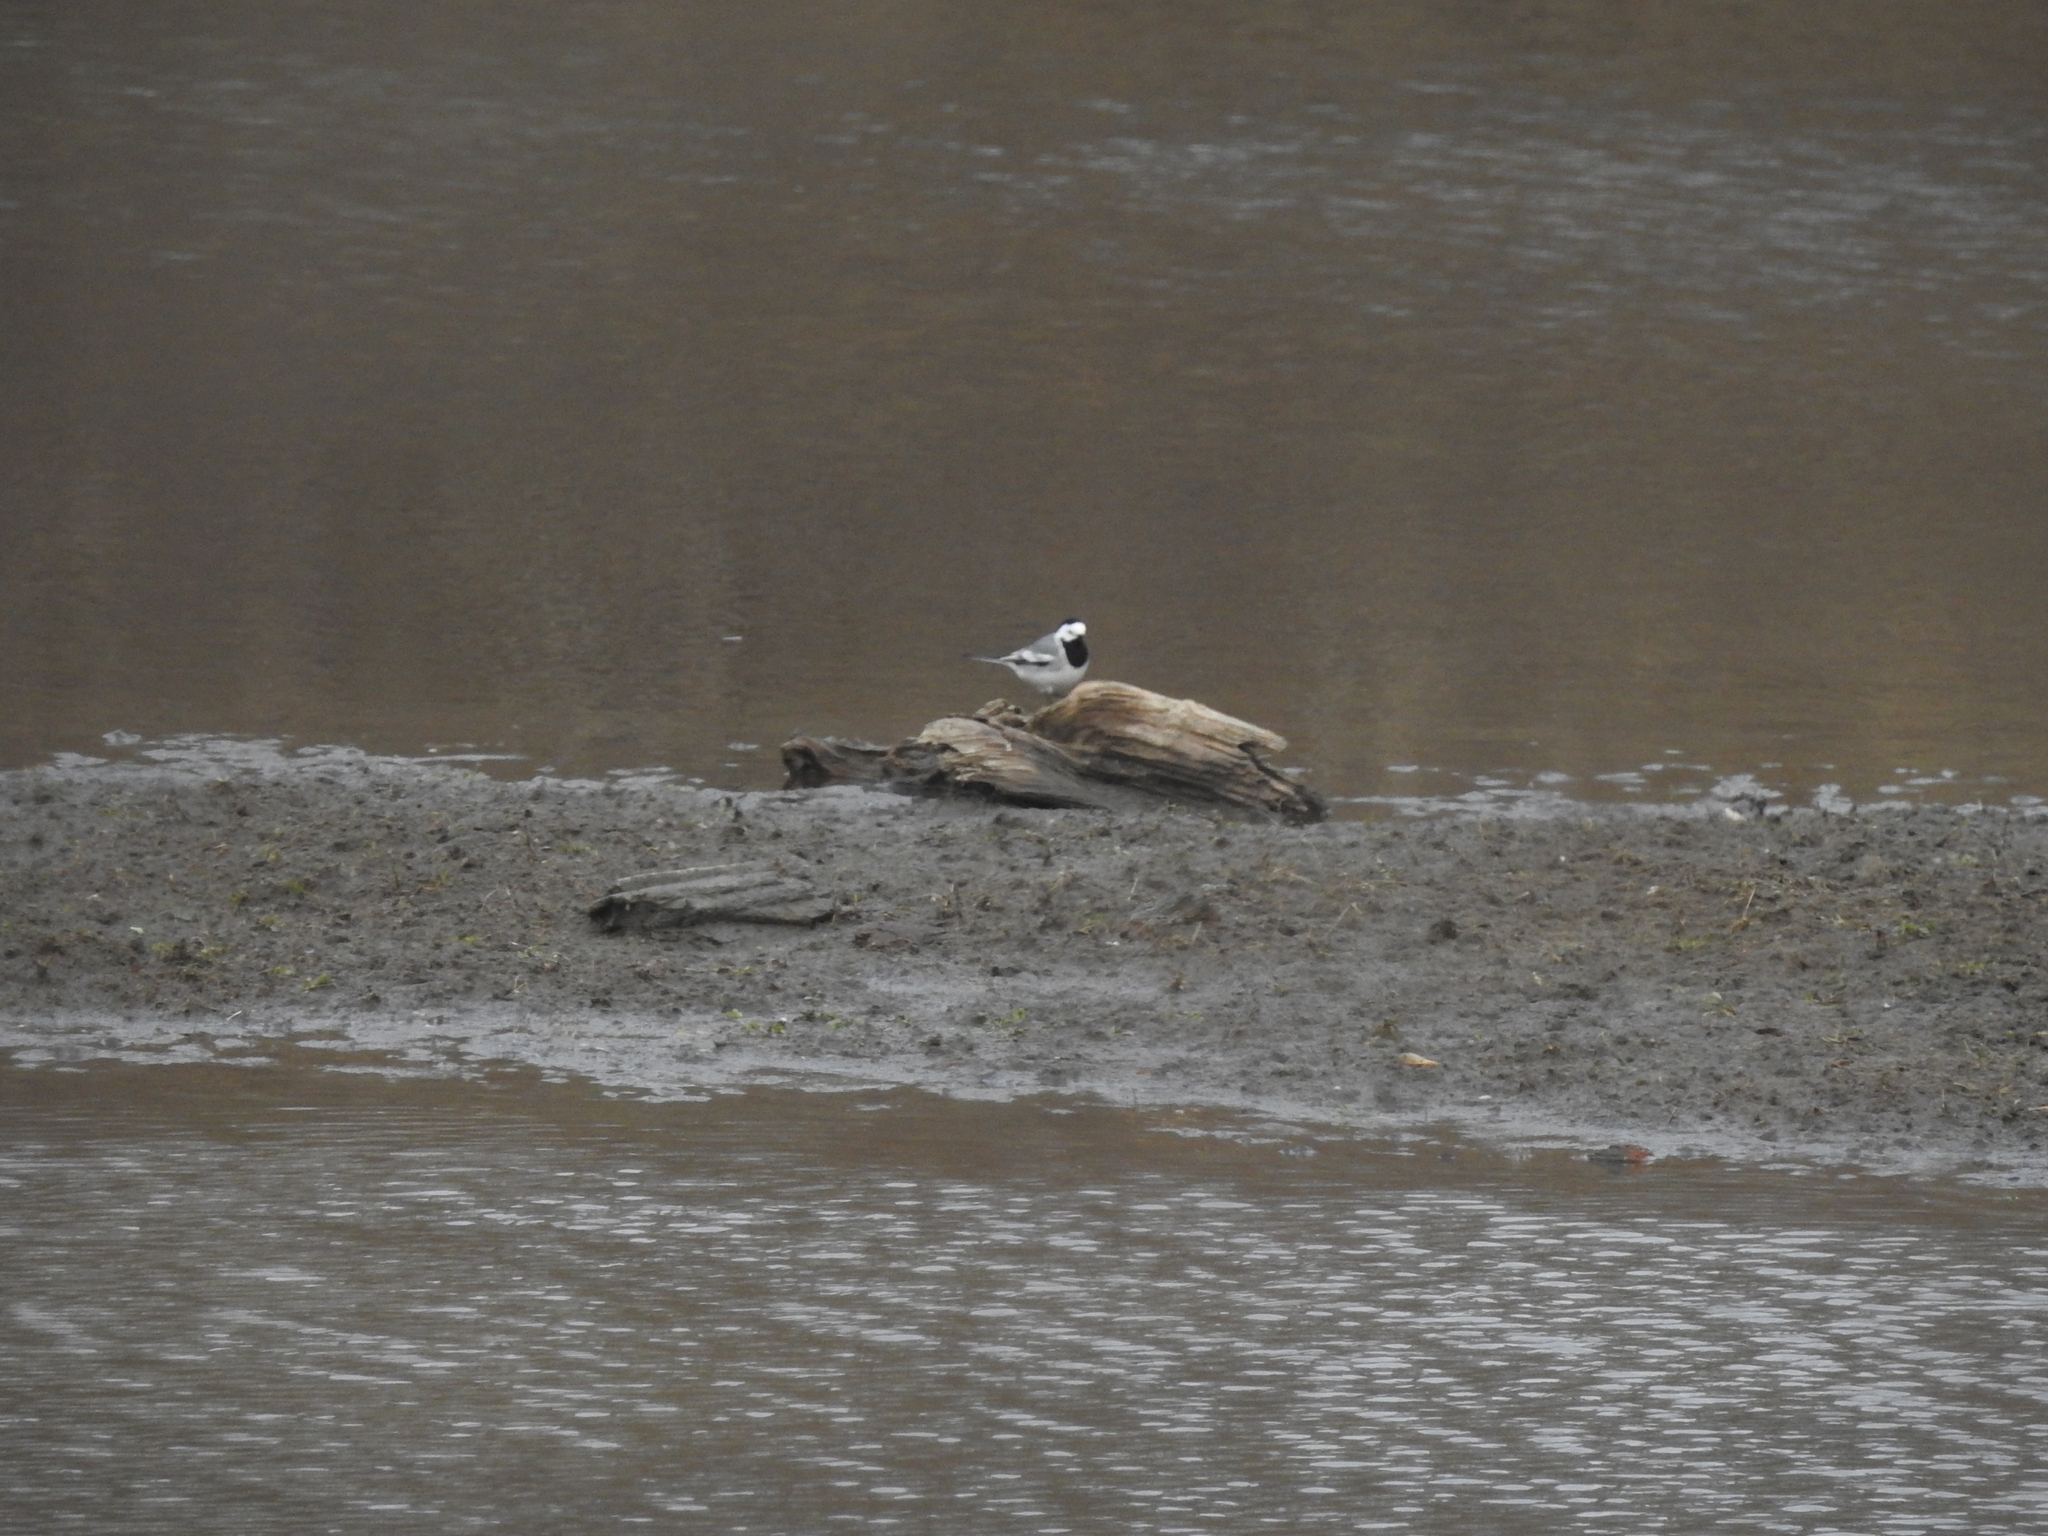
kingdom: Animalia
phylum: Chordata
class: Aves
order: Passeriformes
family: Motacillidae
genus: Motacilla
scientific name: Motacilla alba
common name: White wagtail
